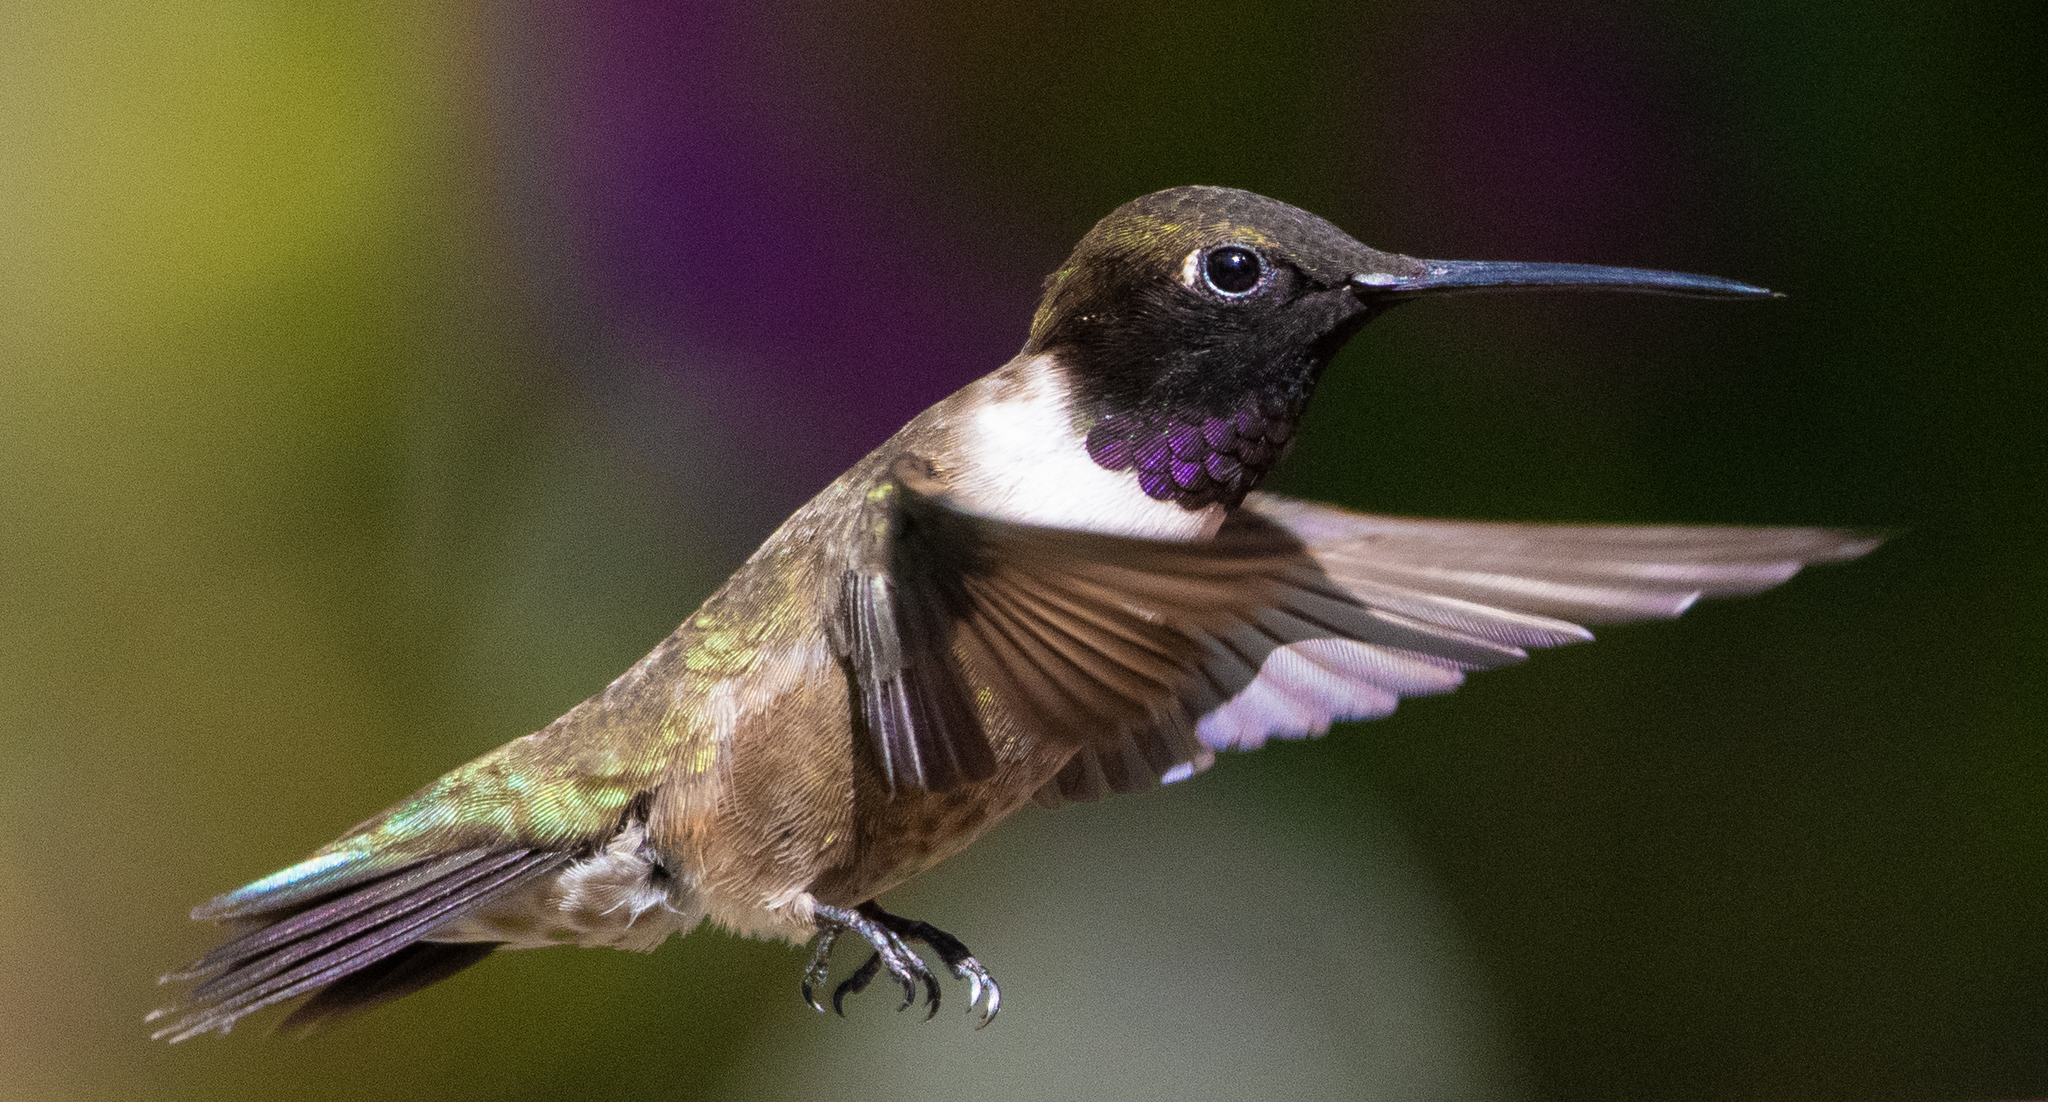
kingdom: Animalia
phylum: Chordata
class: Aves
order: Apodiformes
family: Trochilidae
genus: Archilochus
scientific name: Archilochus alexandri
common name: Black-chinned hummingbird
